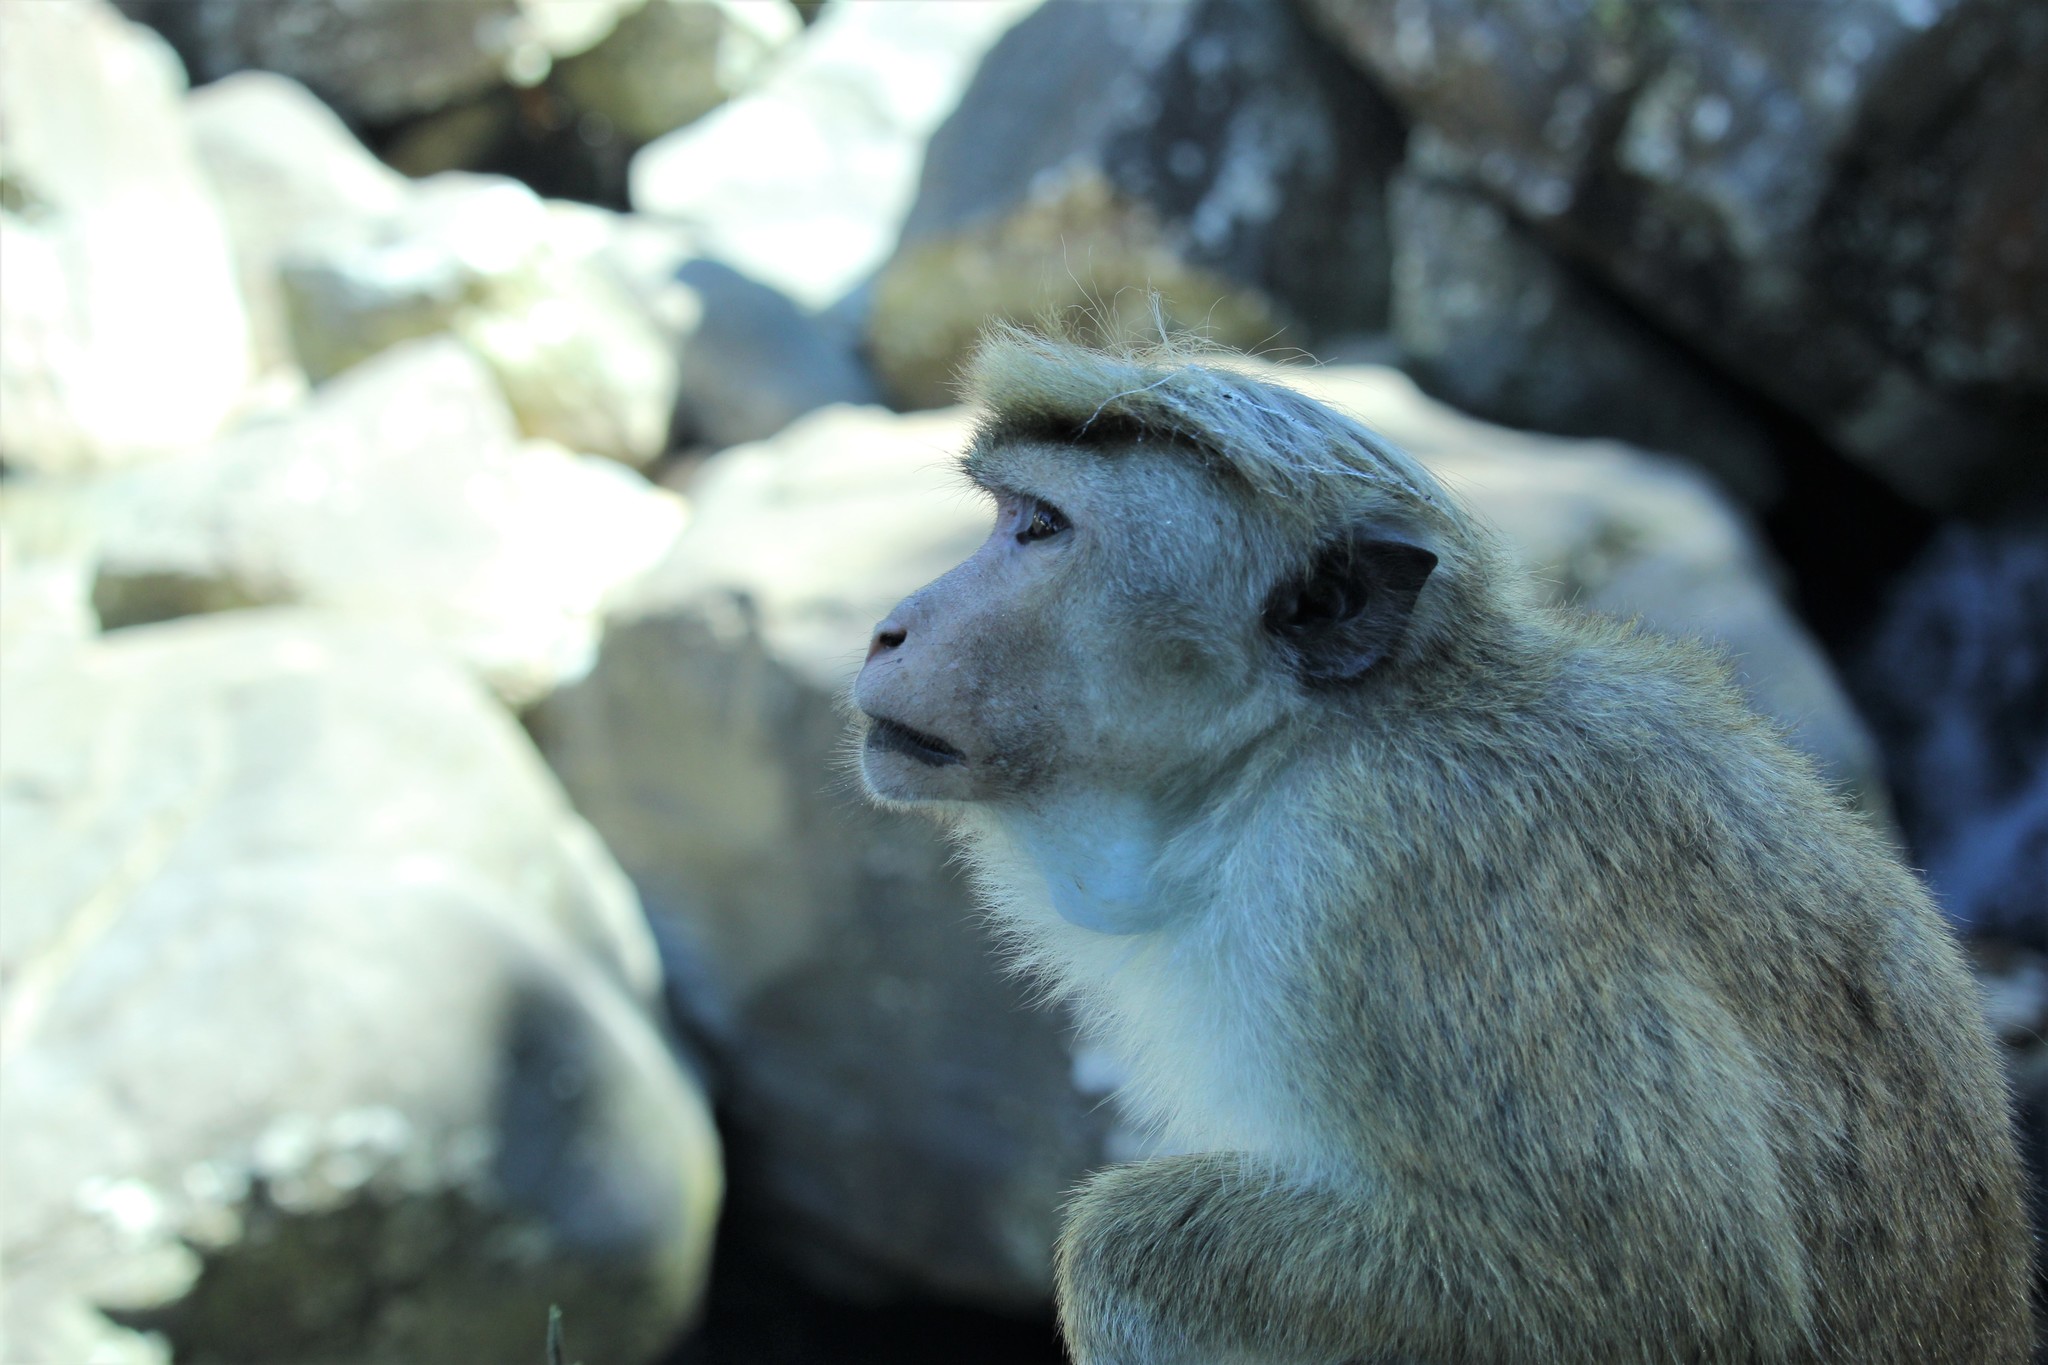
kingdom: Animalia
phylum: Chordata
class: Mammalia
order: Primates
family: Cercopithecidae
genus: Macaca
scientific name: Macaca sinica
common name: Toque macaque
